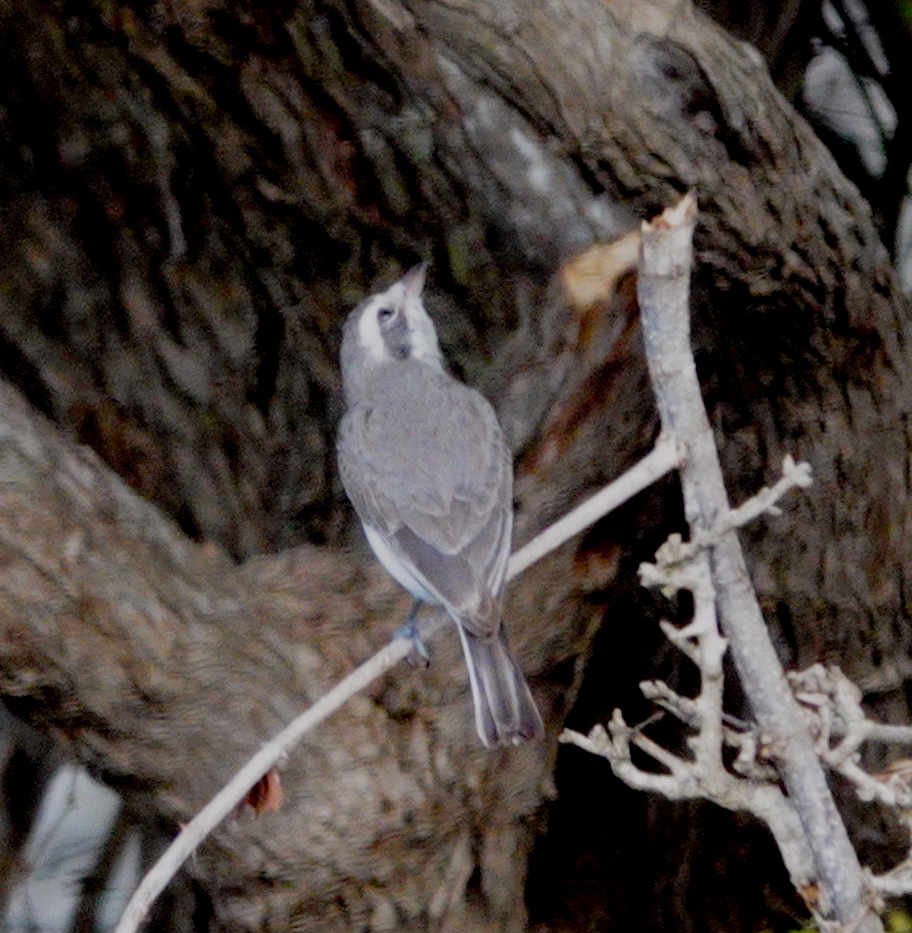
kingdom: Animalia
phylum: Chordata
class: Aves
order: Passeriformes
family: Tephrodornithidae
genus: Tephrodornis
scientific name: Tephrodornis affinis
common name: Sri lanka woodshrike
